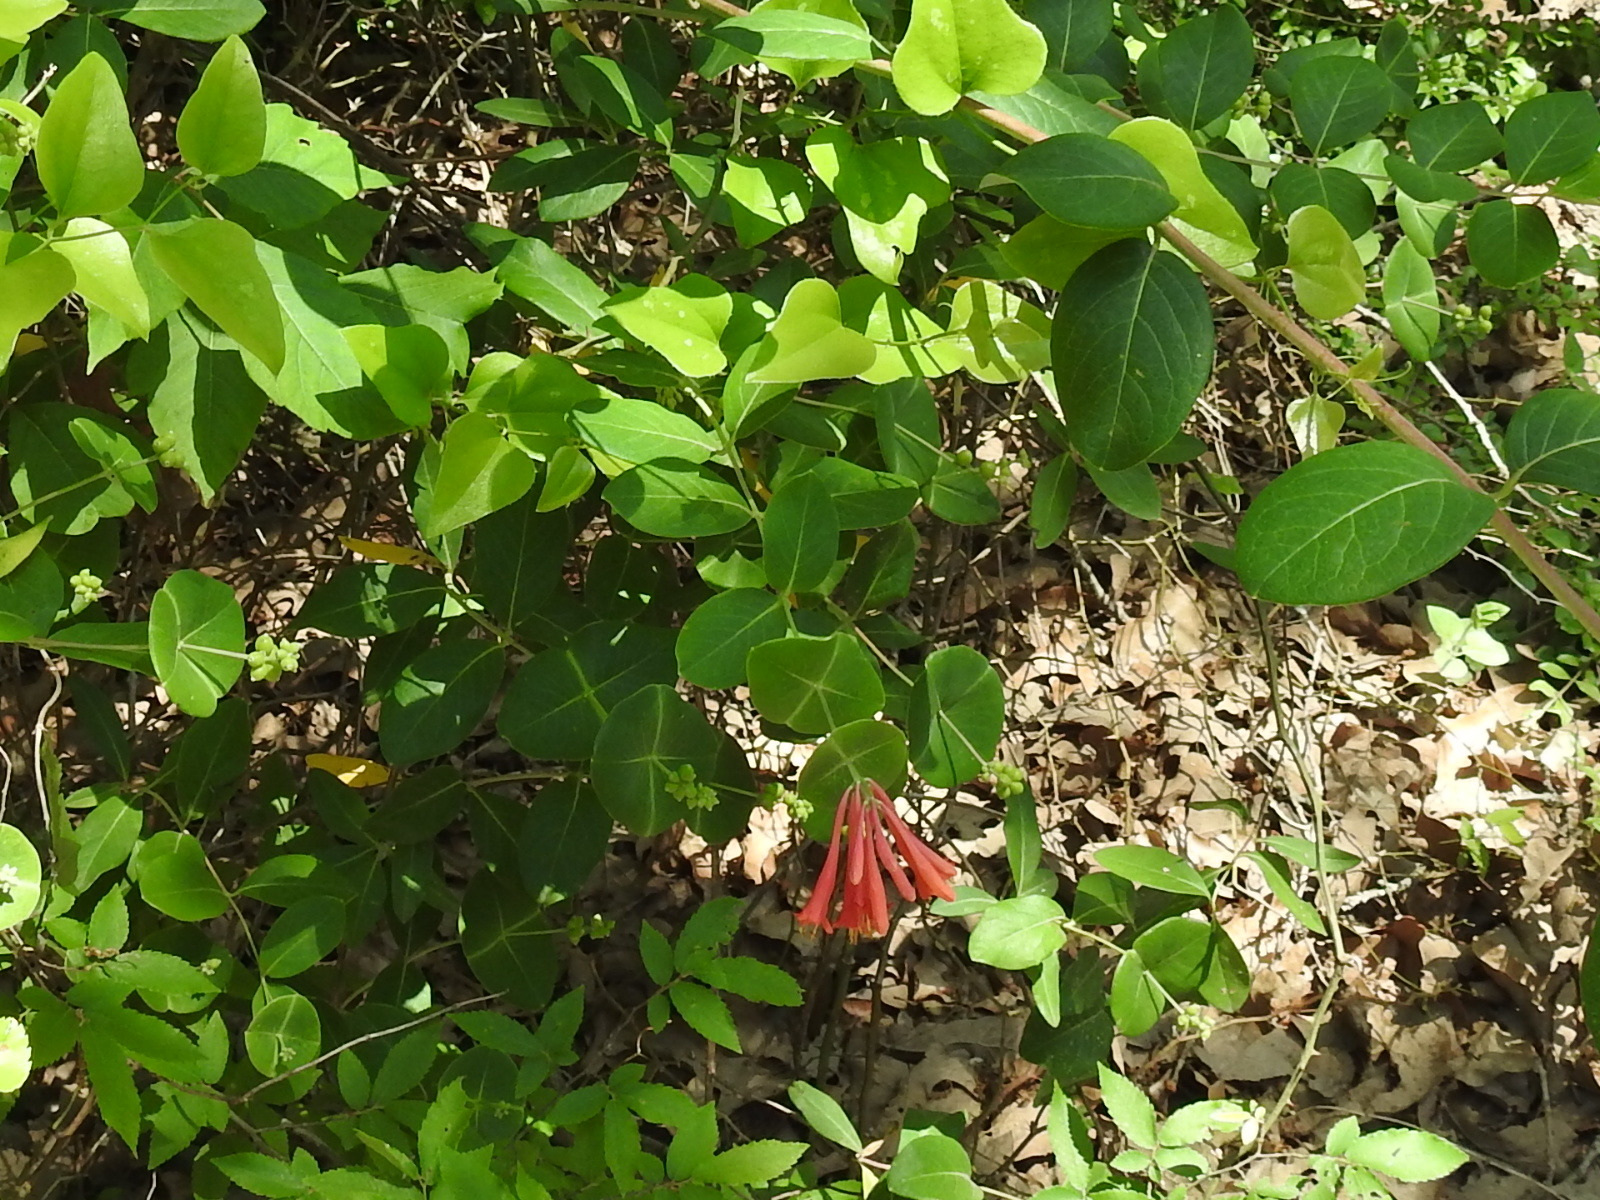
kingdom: Plantae
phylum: Tracheophyta
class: Magnoliopsida
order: Dipsacales
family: Caprifoliaceae
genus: Lonicera
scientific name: Lonicera sempervirens
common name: Coral honeysuckle
